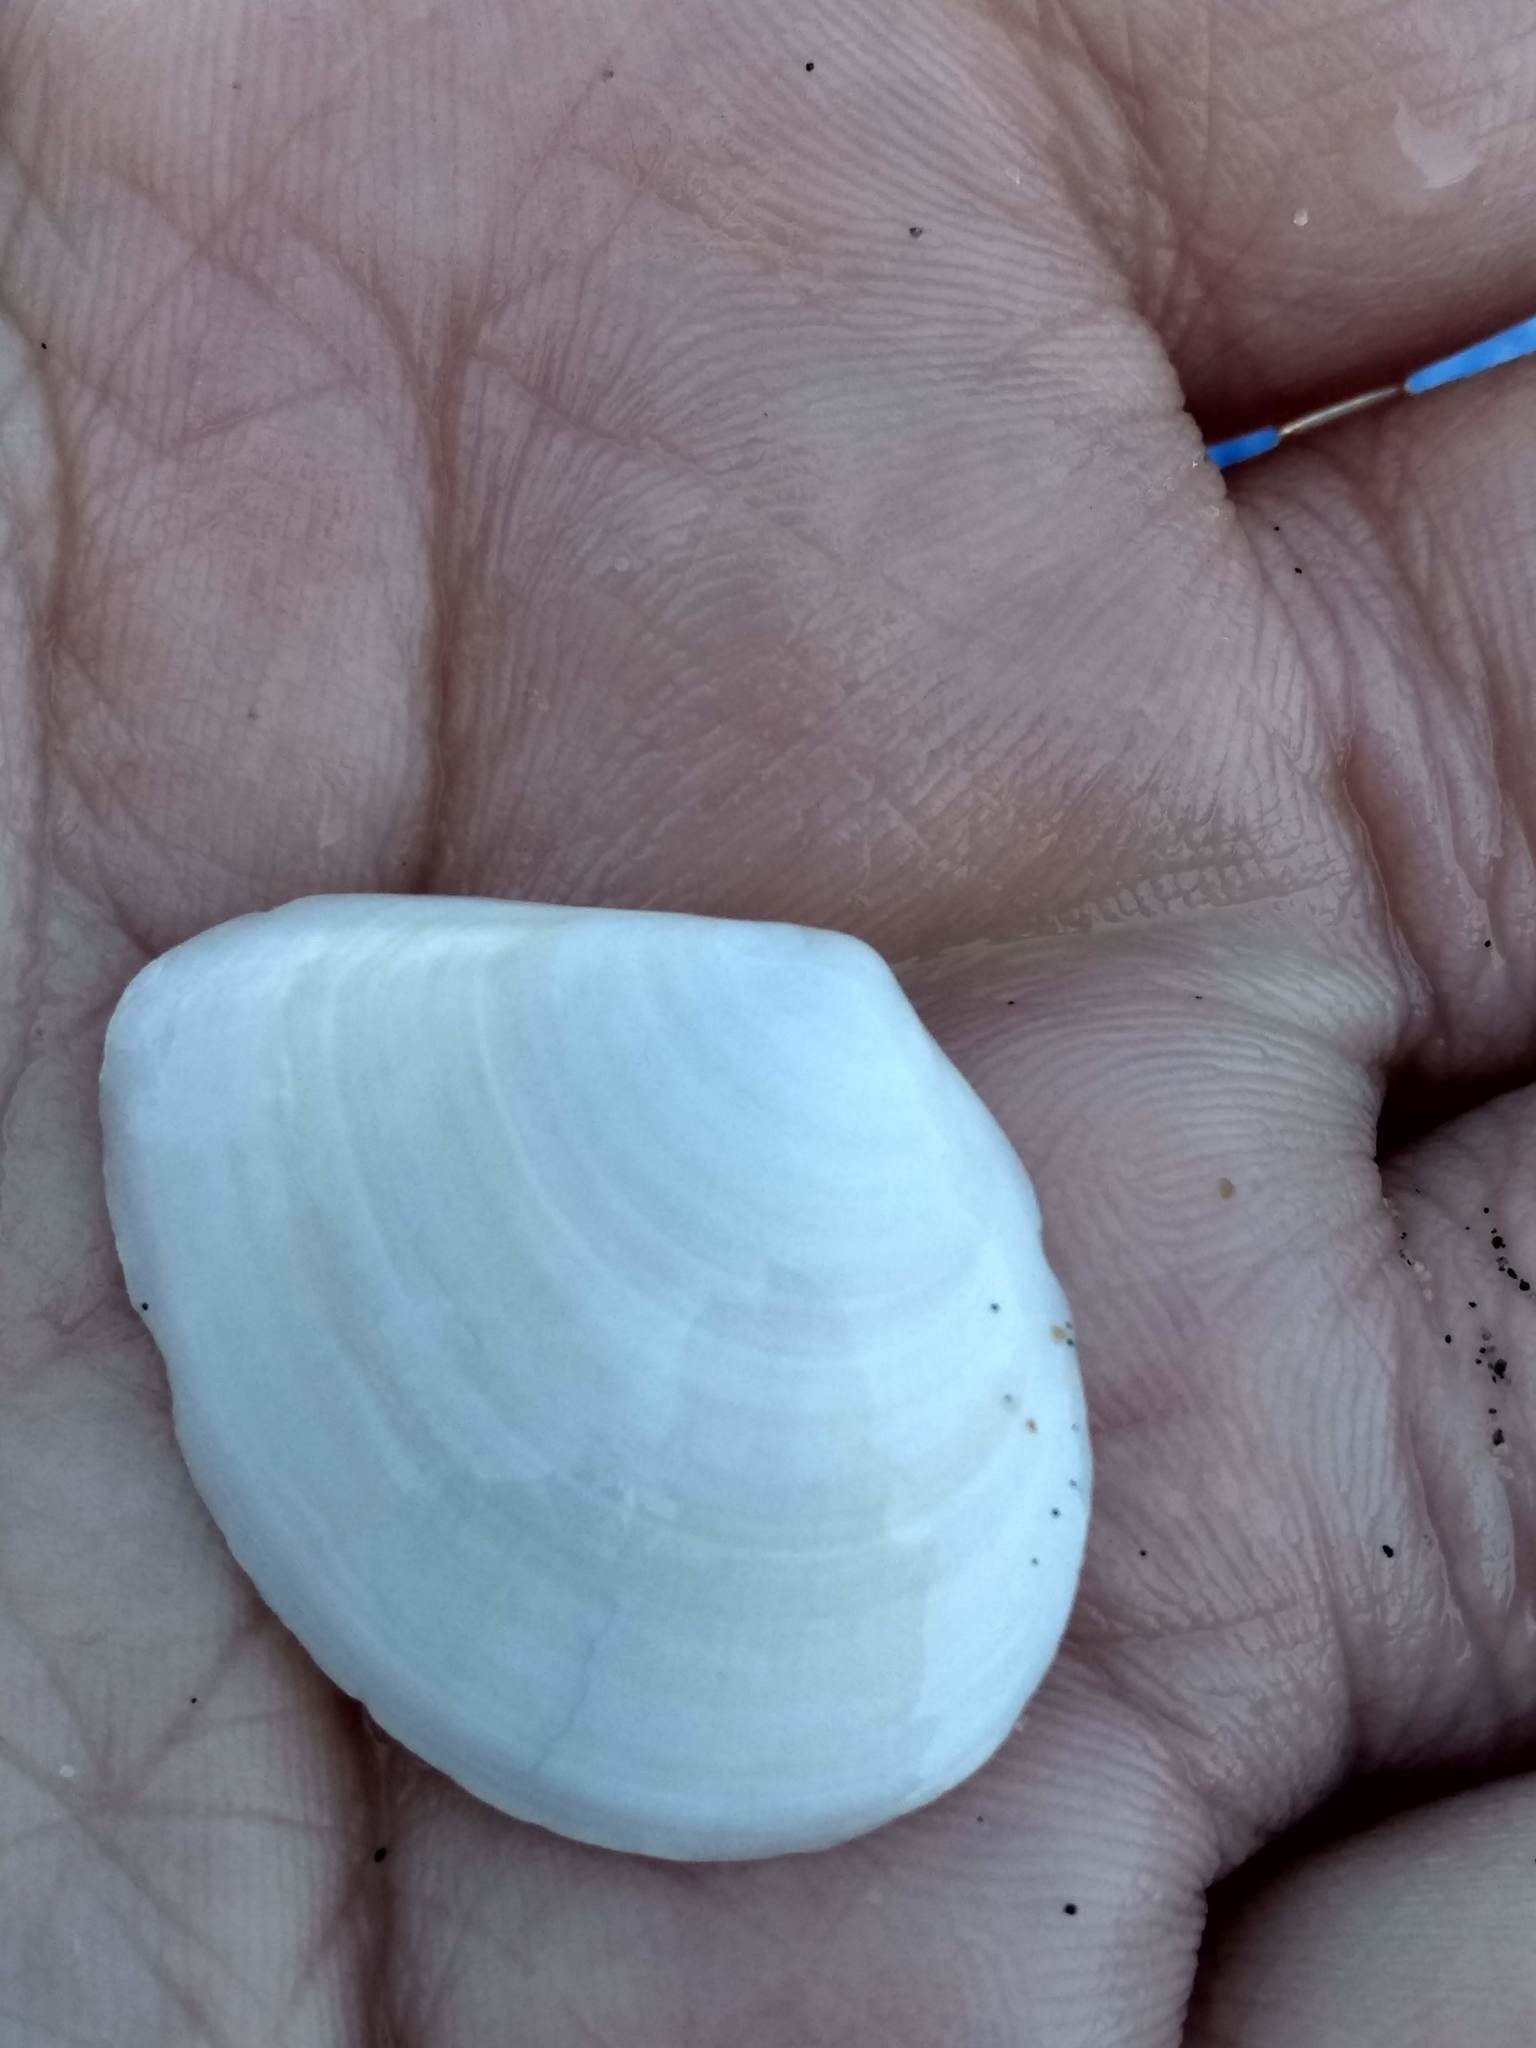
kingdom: Animalia
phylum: Mollusca
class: Bivalvia
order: Cardiida
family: Tellinidae
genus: Macoma
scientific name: Macoma nasuta
